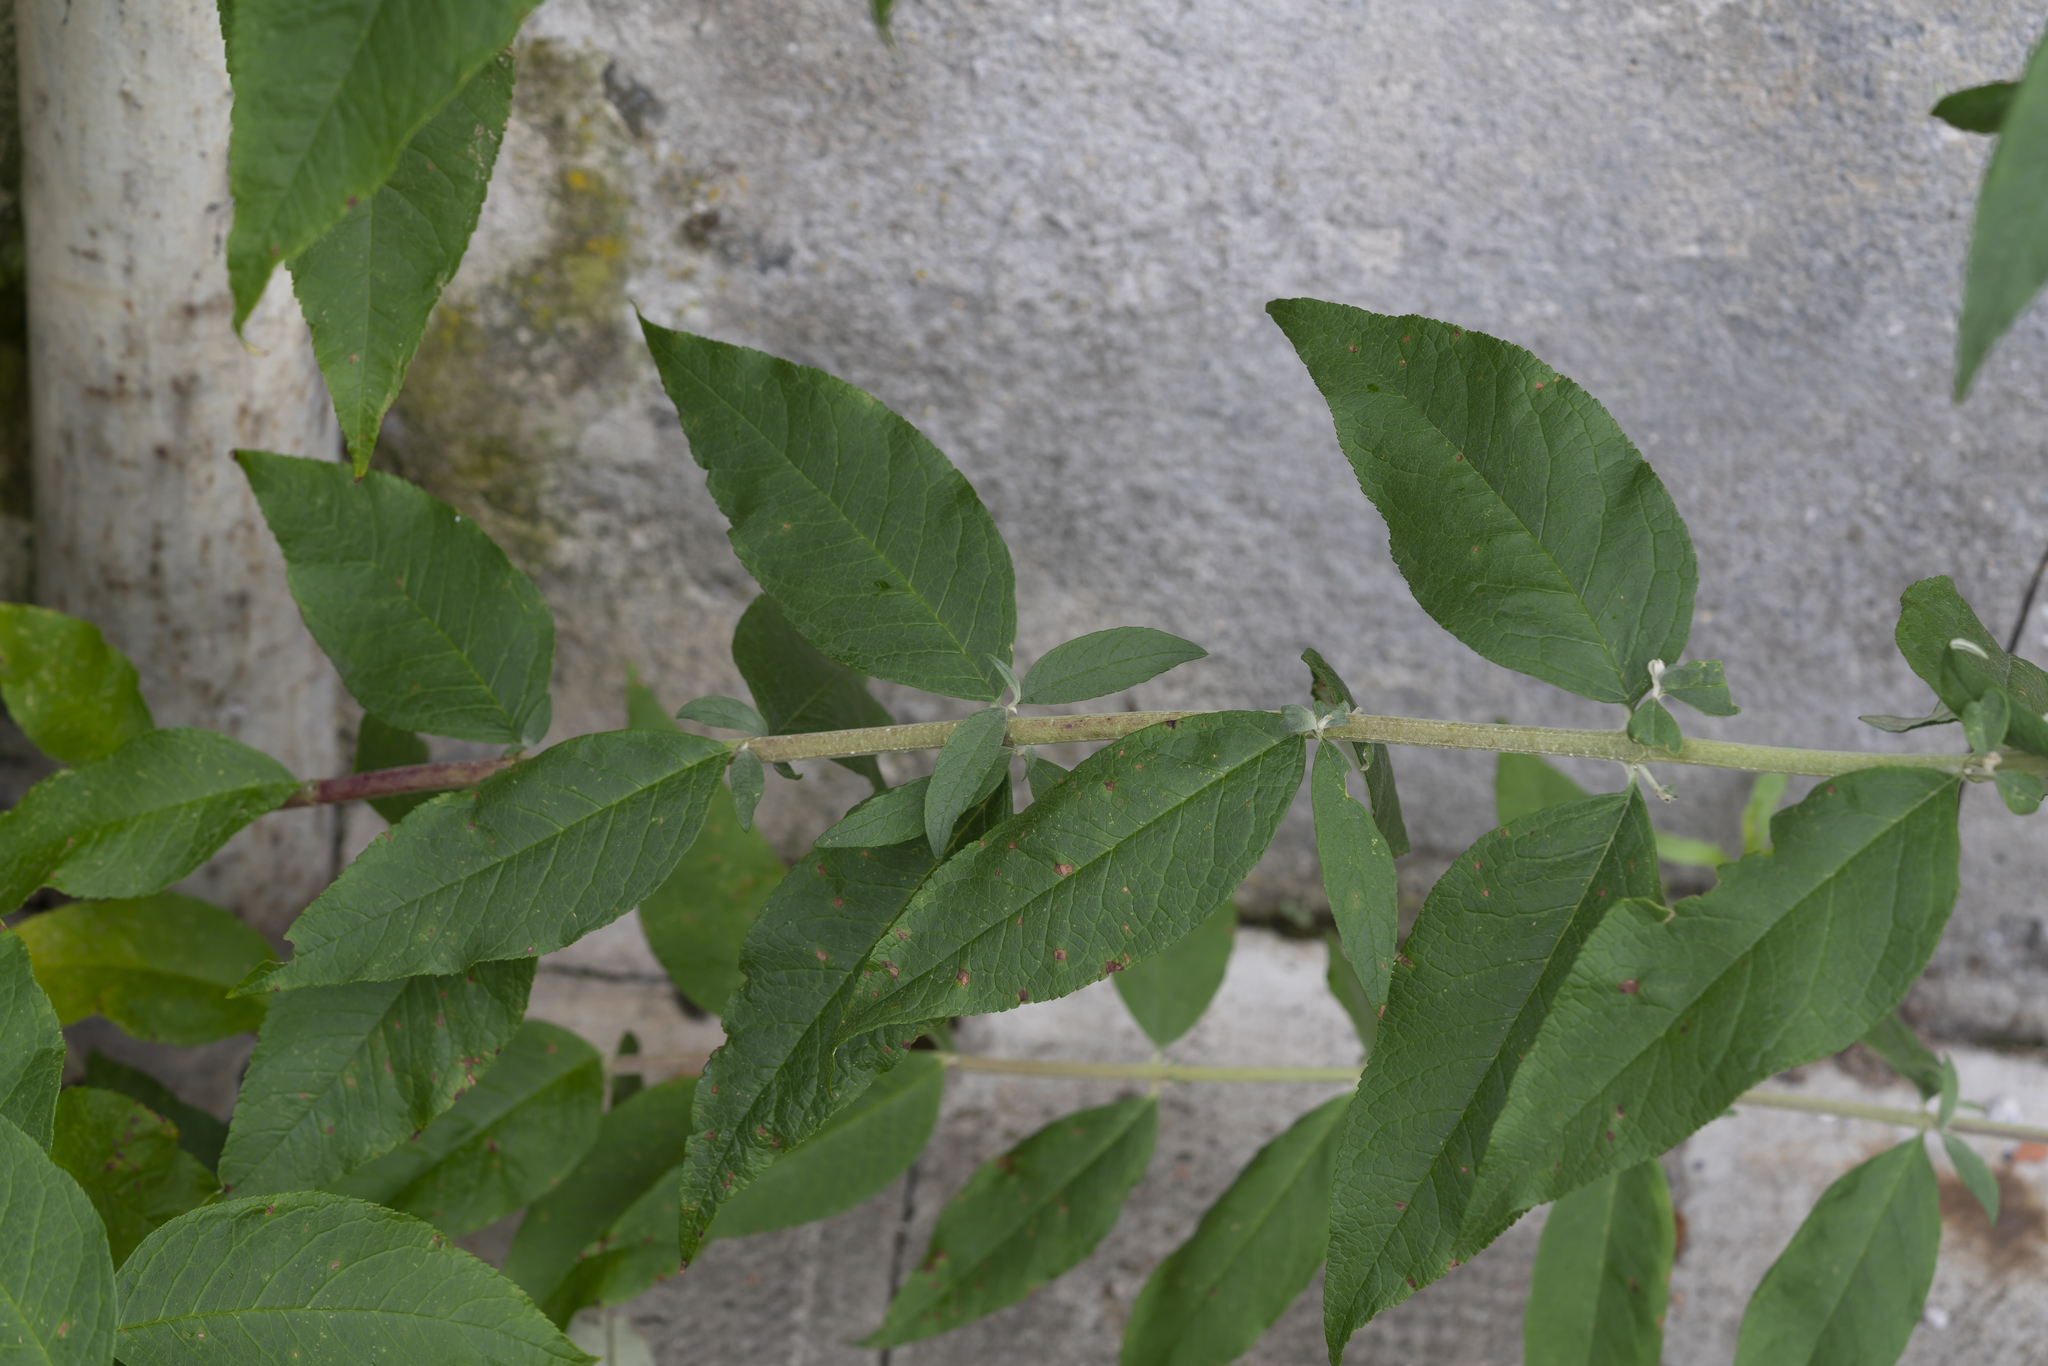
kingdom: Plantae
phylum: Tracheophyta
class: Magnoliopsida
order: Lamiales
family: Scrophulariaceae
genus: Buddleja
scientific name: Buddleja davidii
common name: Butterfly-bush
